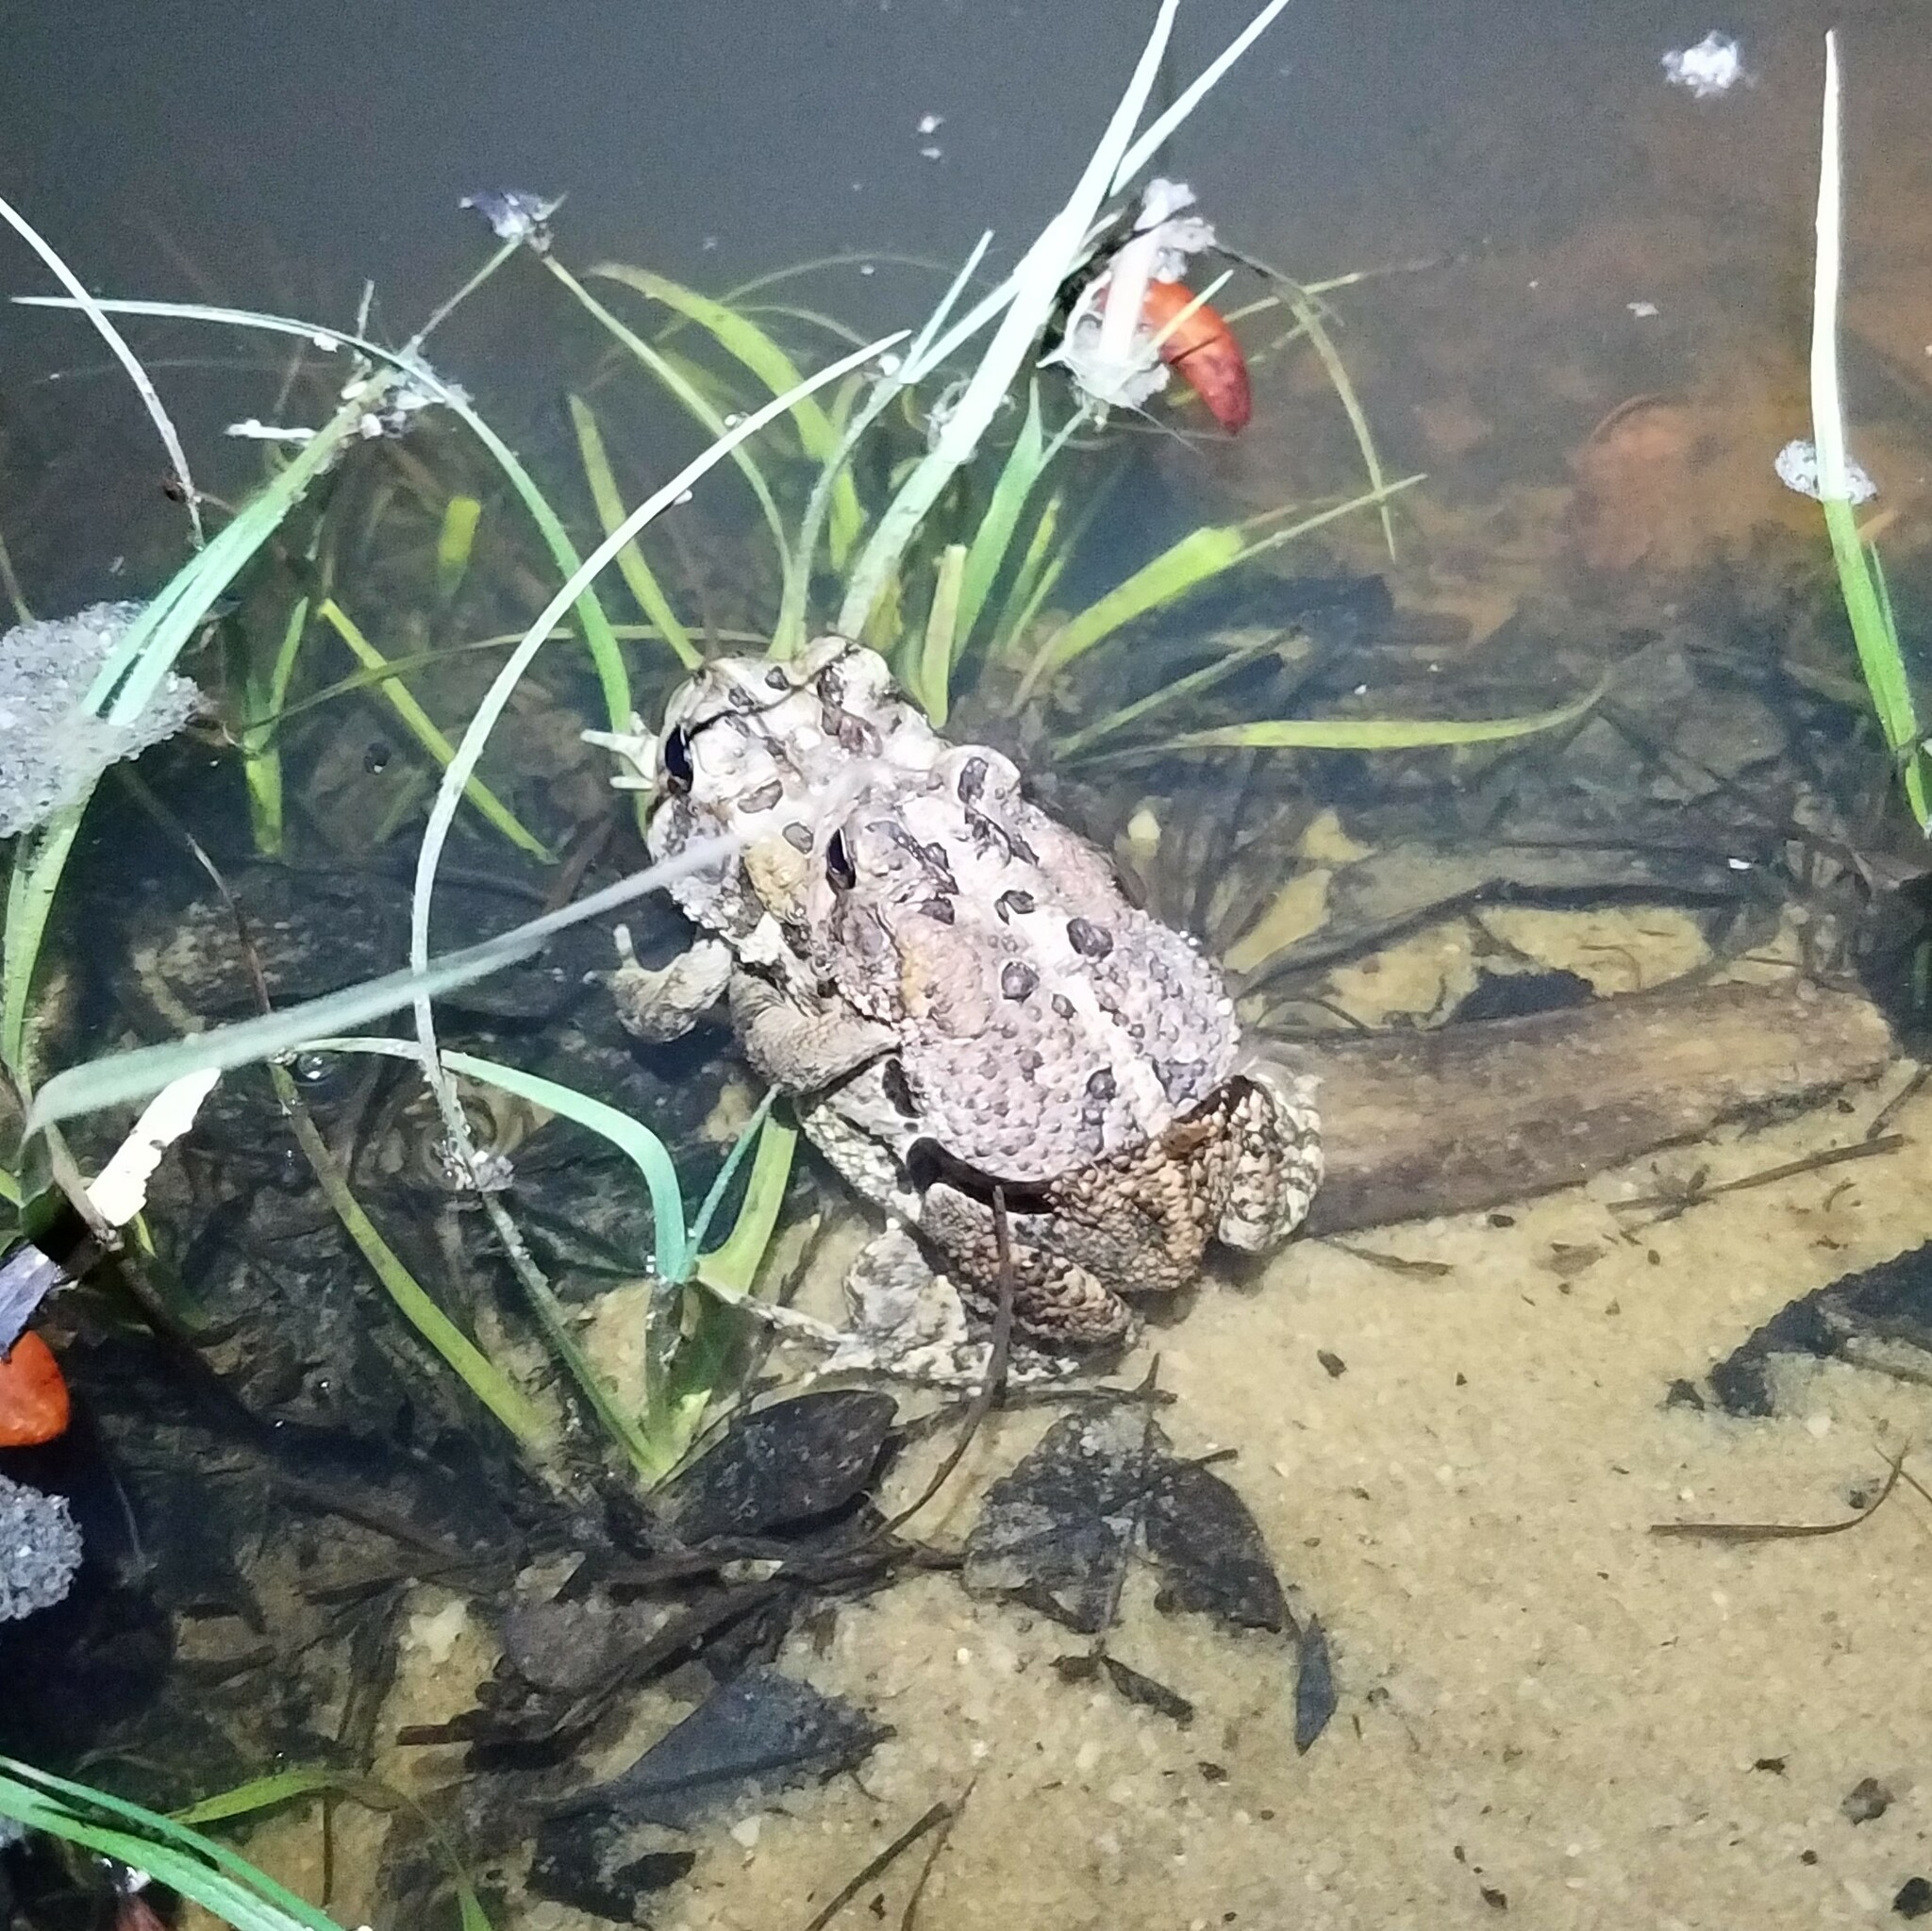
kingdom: Animalia
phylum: Chordata
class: Amphibia
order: Anura
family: Bufonidae
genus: Anaxyrus
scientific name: Anaxyrus terrestris
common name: Southern toad
